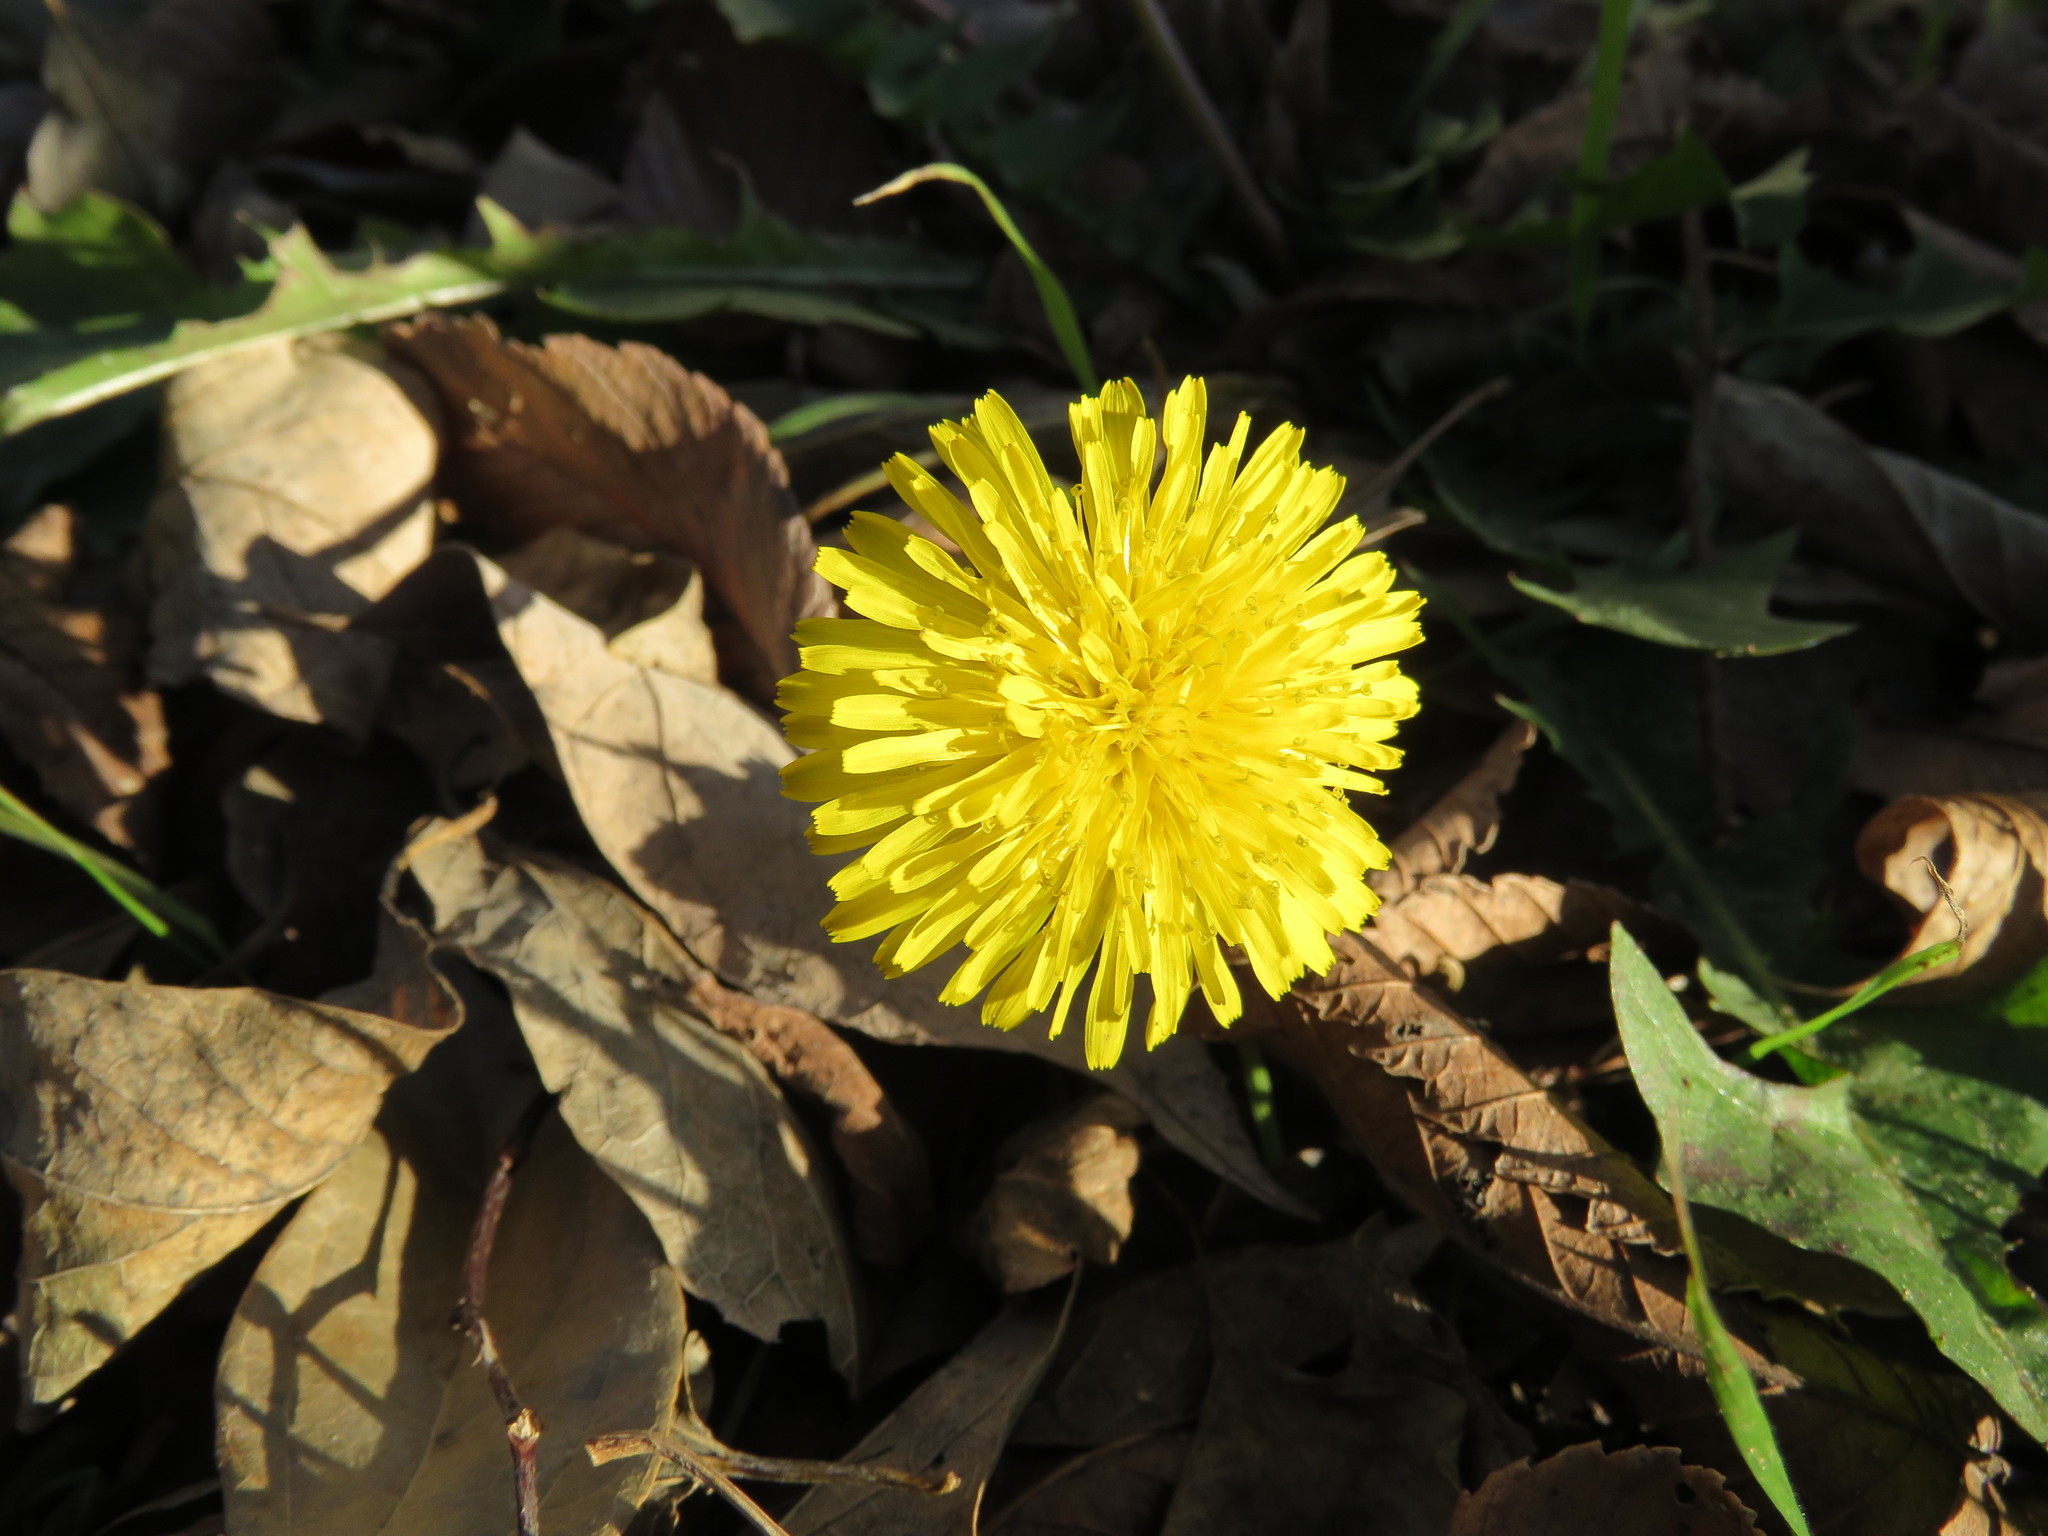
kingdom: Plantae
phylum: Tracheophyta
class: Magnoliopsida
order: Asterales
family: Asteraceae
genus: Taraxacum
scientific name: Taraxacum officinale
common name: Common dandelion
